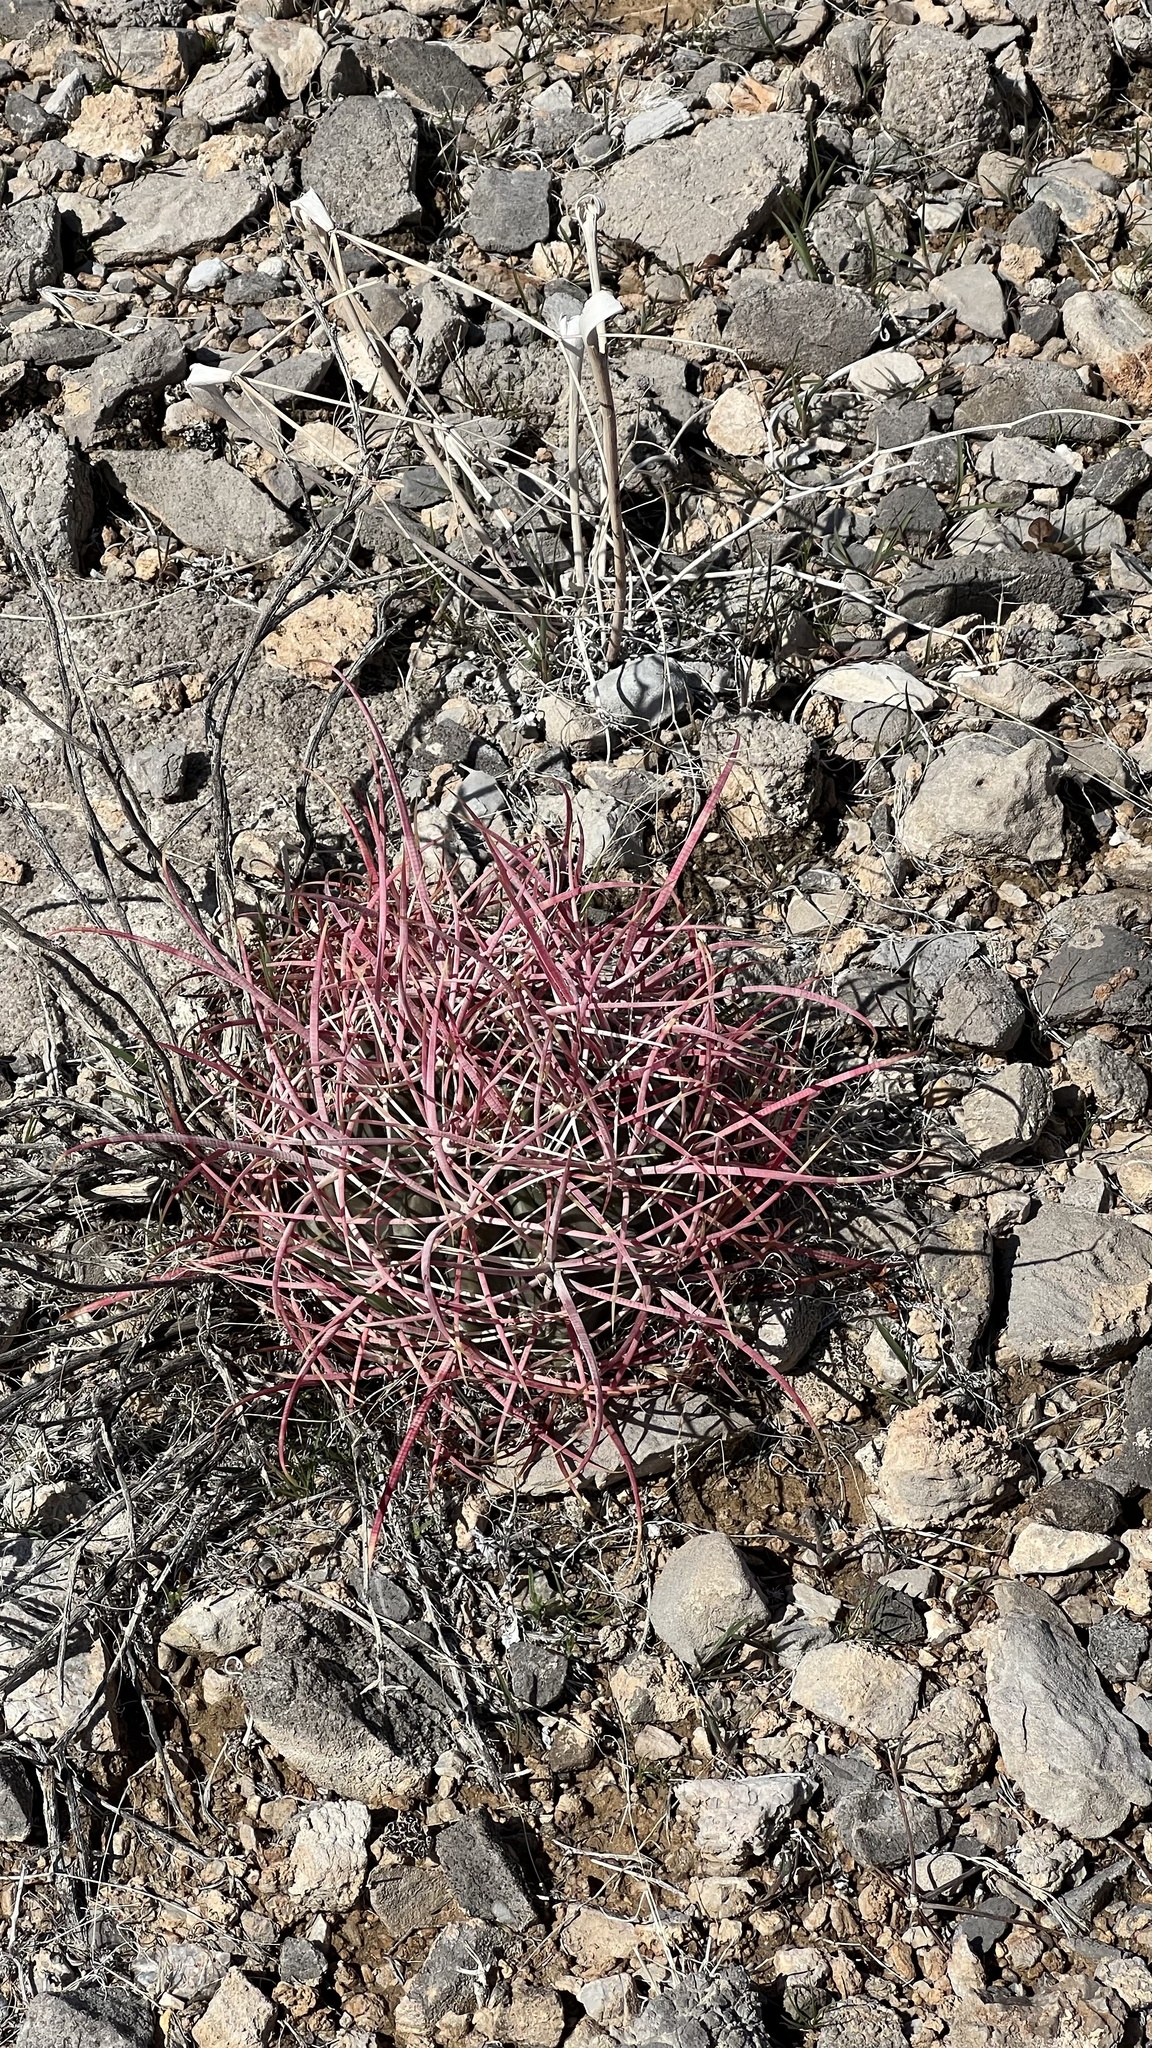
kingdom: Plantae
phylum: Tracheophyta
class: Magnoliopsida
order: Caryophyllales
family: Cactaceae
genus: Ferocactus
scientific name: Ferocactus cylindraceus
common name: California barrel cactus
